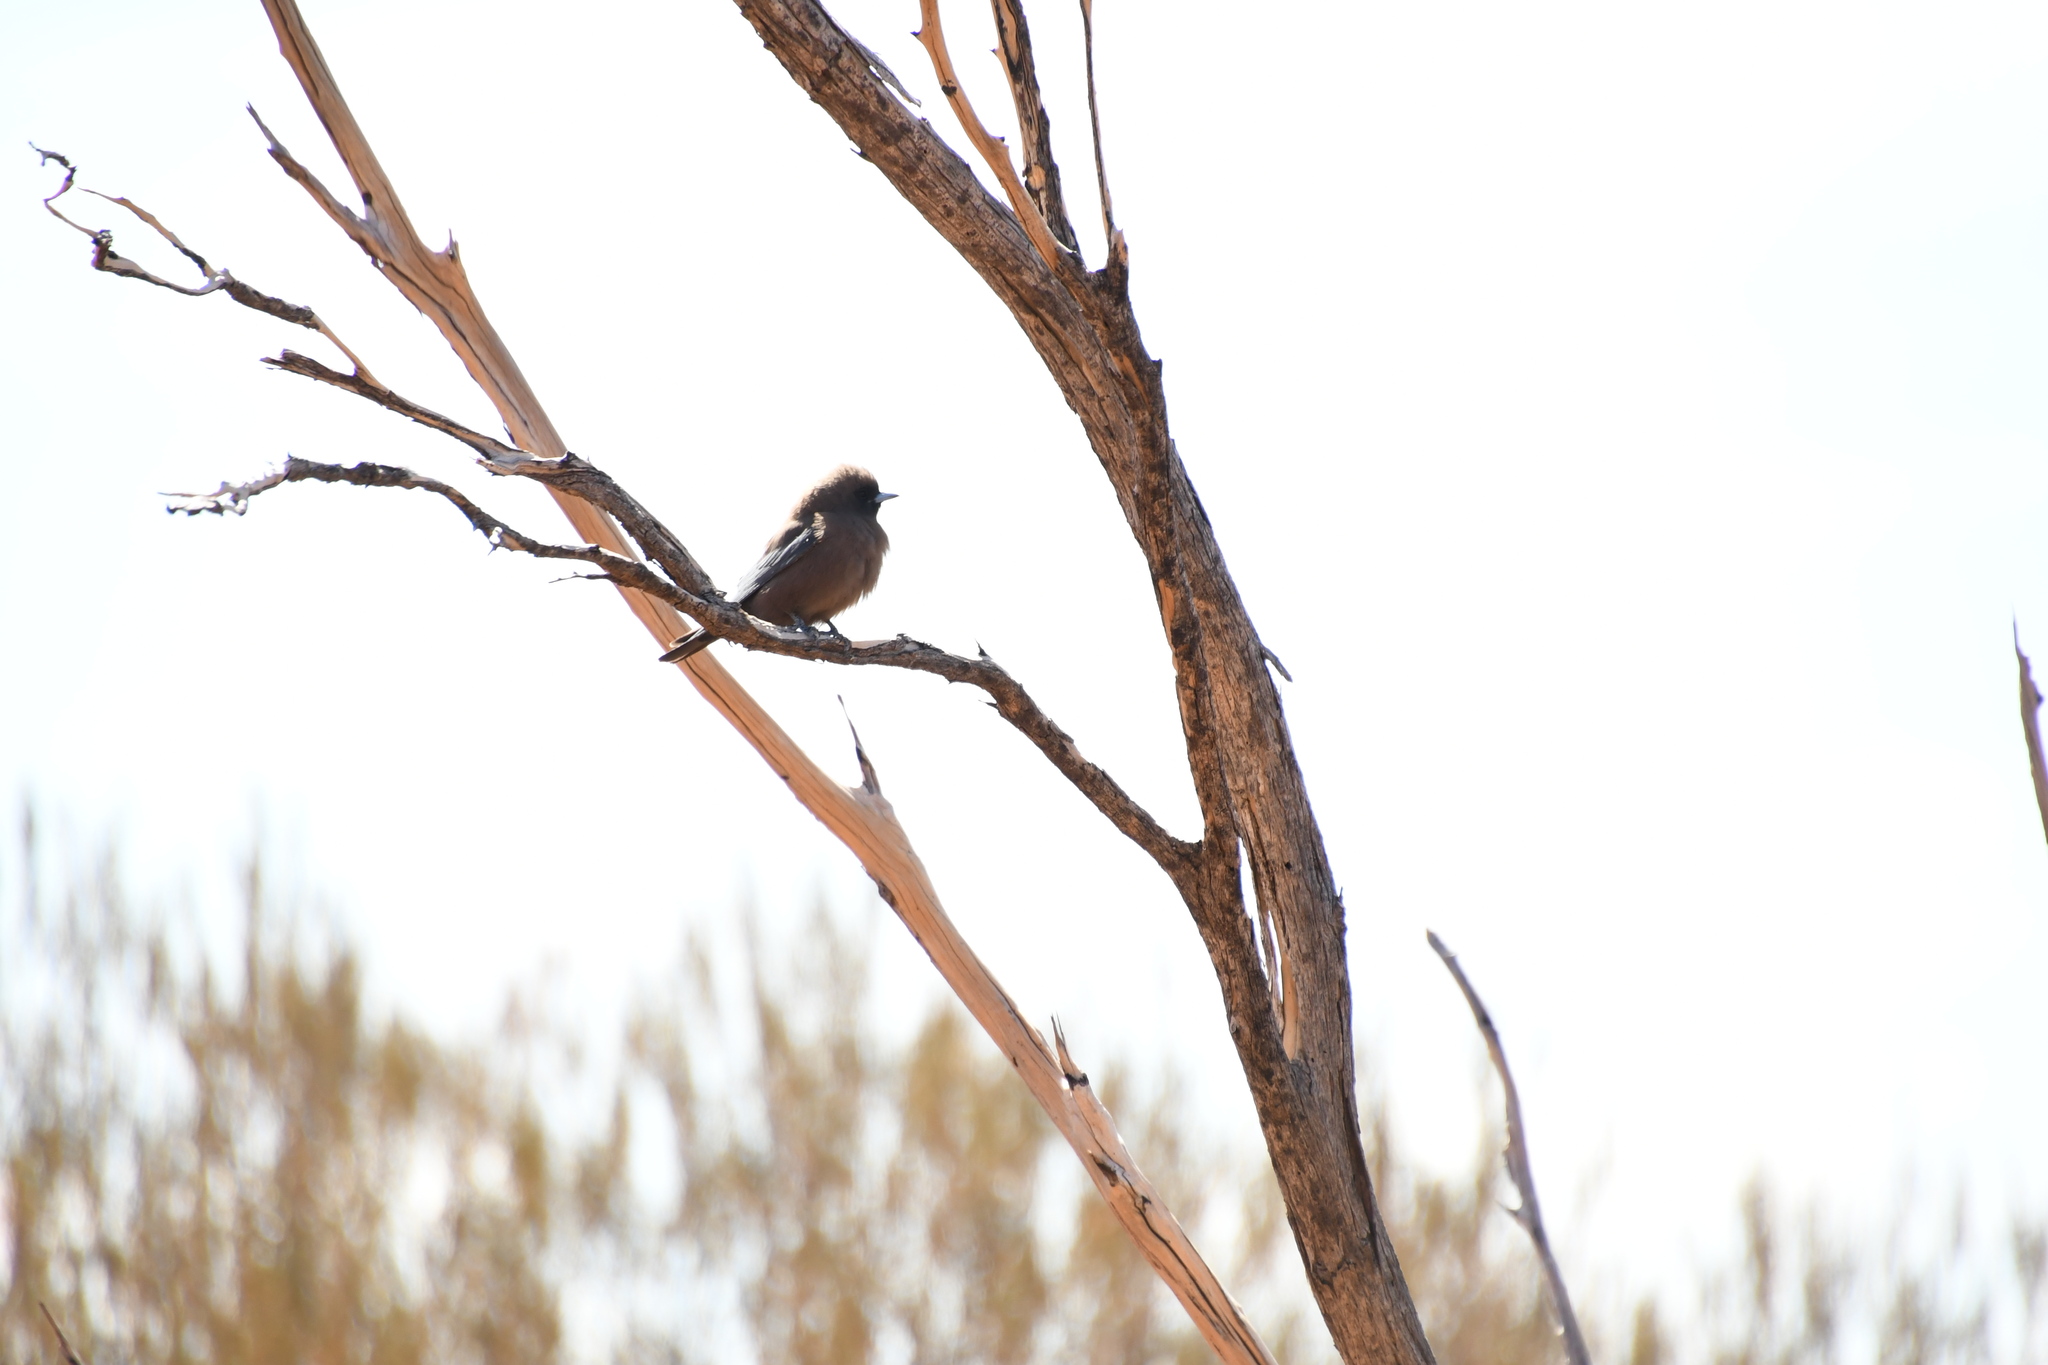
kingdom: Animalia
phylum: Chordata
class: Aves
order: Passeriformes
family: Artamidae
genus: Artamus
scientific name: Artamus minor
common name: Little woodswallow
